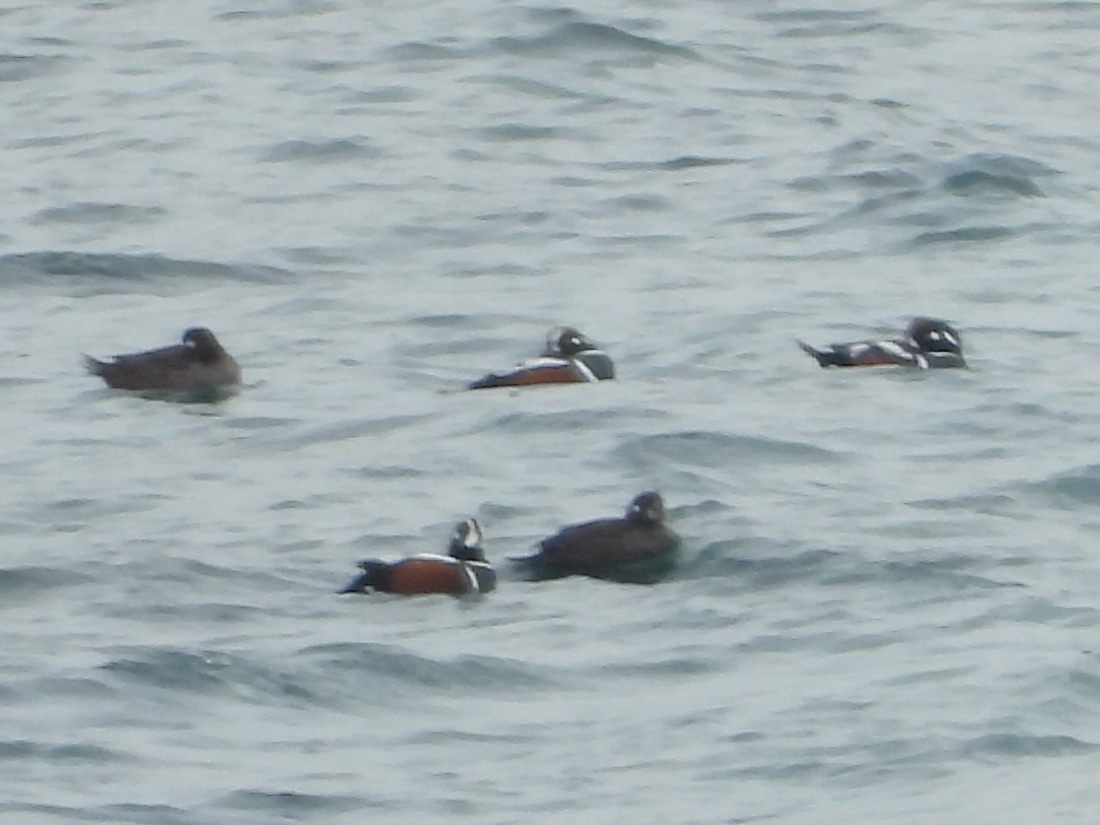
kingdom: Animalia
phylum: Chordata
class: Aves
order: Anseriformes
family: Anatidae
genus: Histrionicus
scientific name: Histrionicus histrionicus
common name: Harlequin duck
